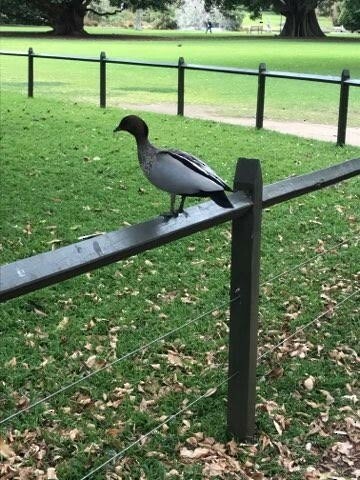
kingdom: Animalia
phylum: Chordata
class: Aves
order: Anseriformes
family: Anatidae
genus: Chenonetta
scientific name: Chenonetta jubata
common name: Maned duck
